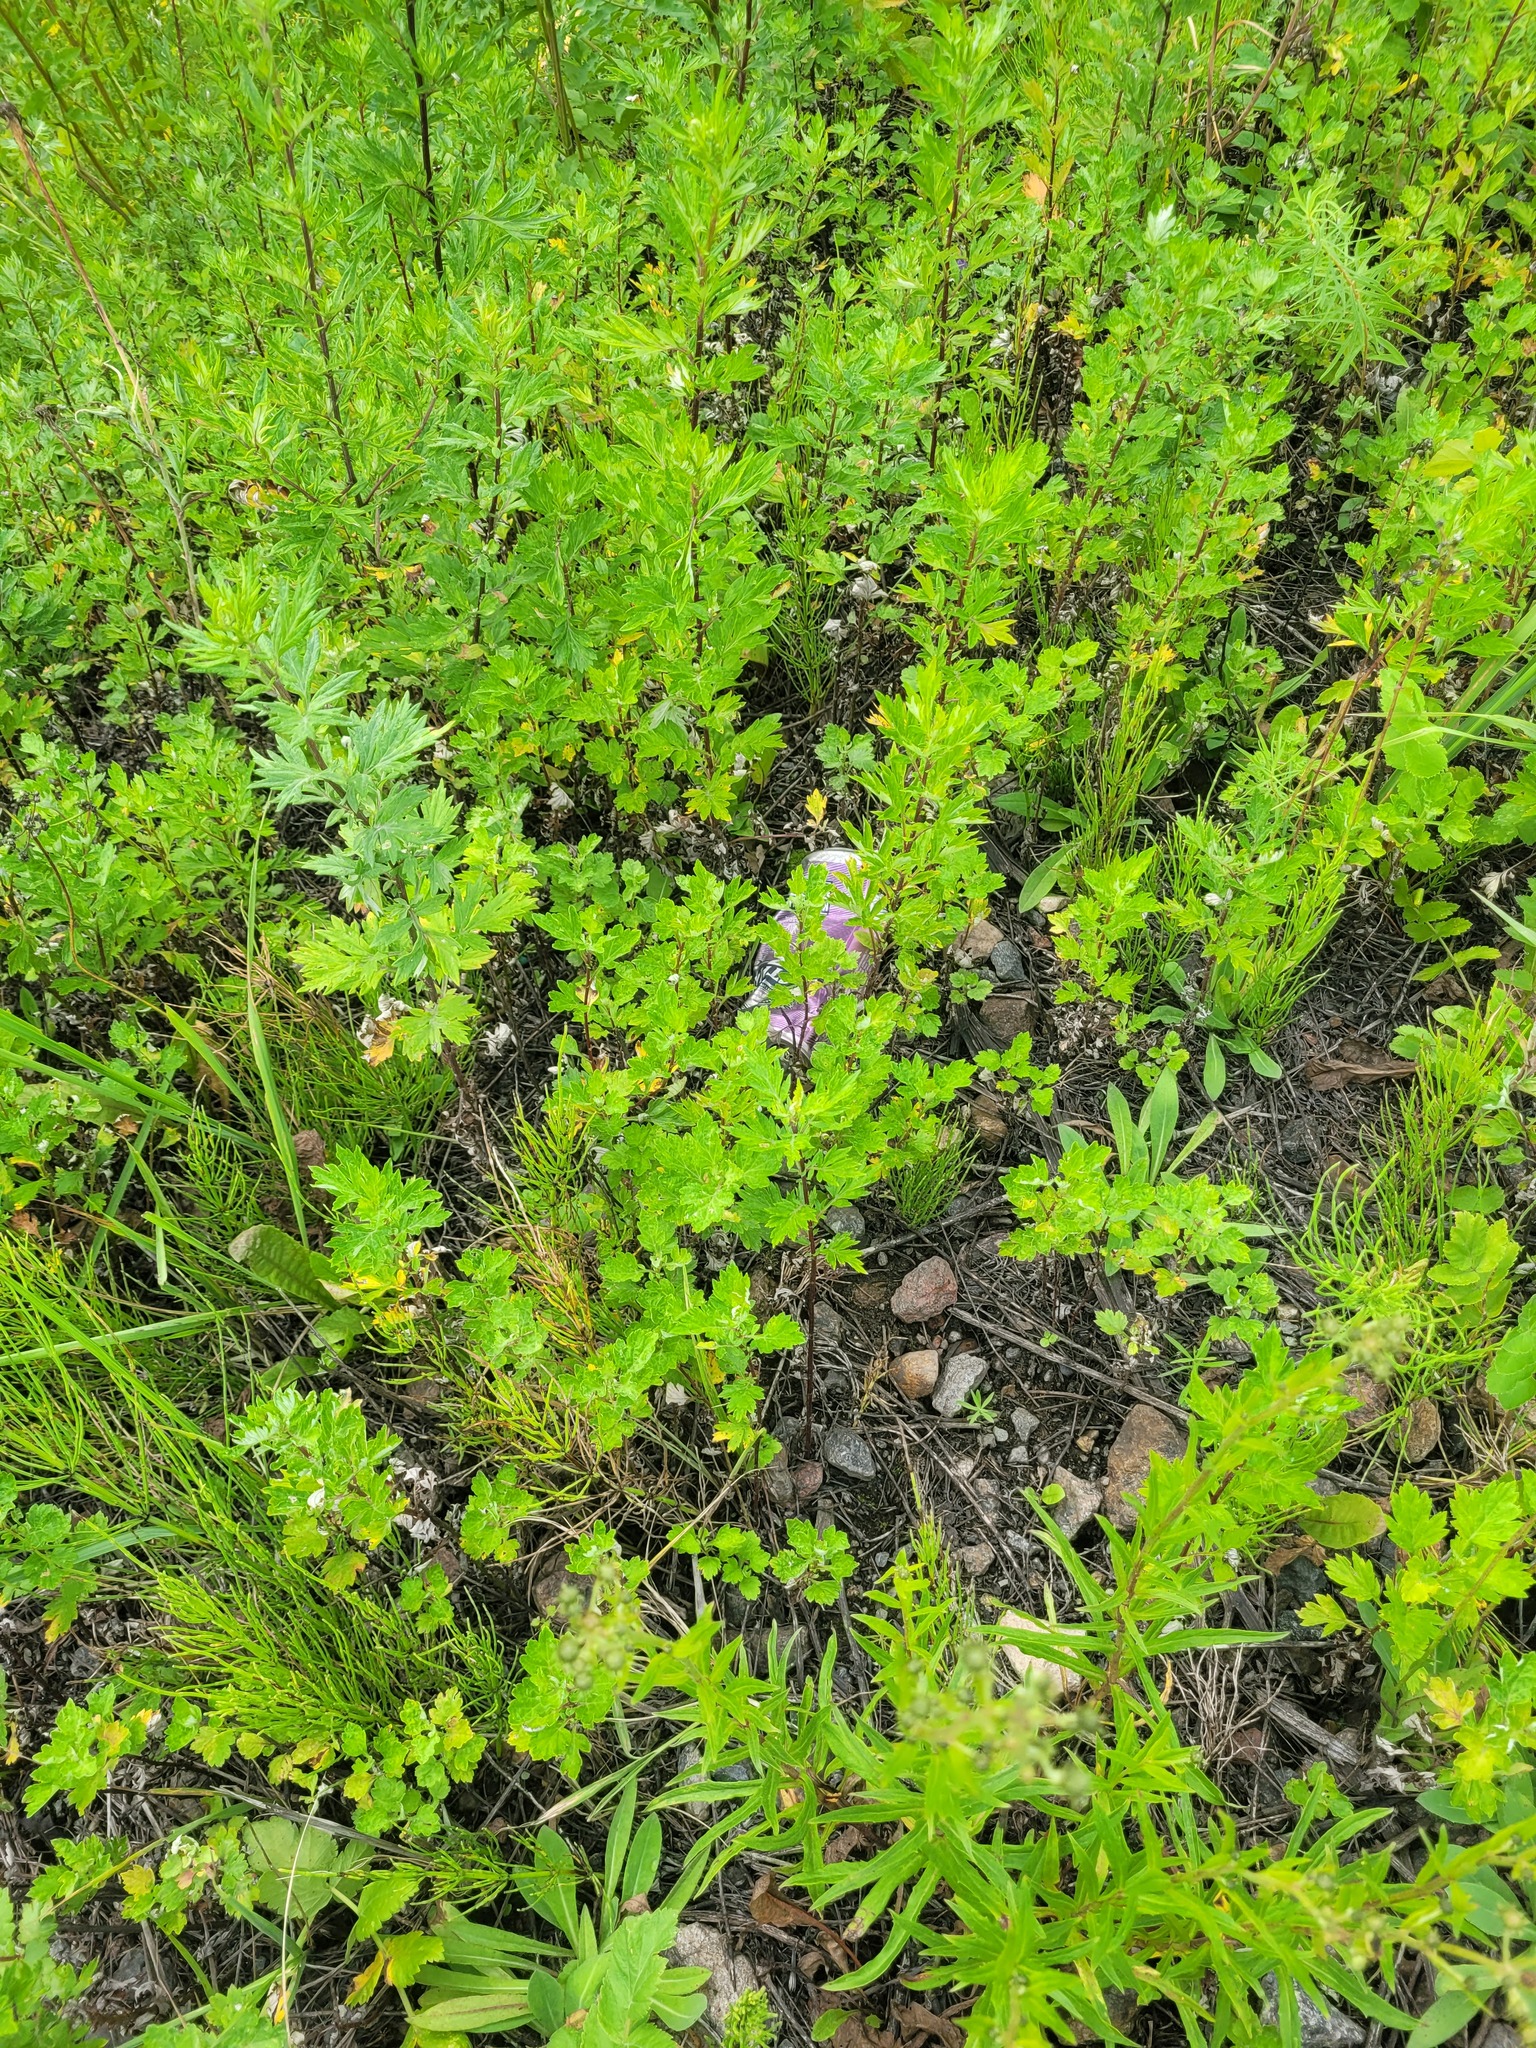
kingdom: Plantae
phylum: Tracheophyta
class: Magnoliopsida
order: Asterales
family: Asteraceae
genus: Artemisia
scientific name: Artemisia vulgaris
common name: Mugwort
